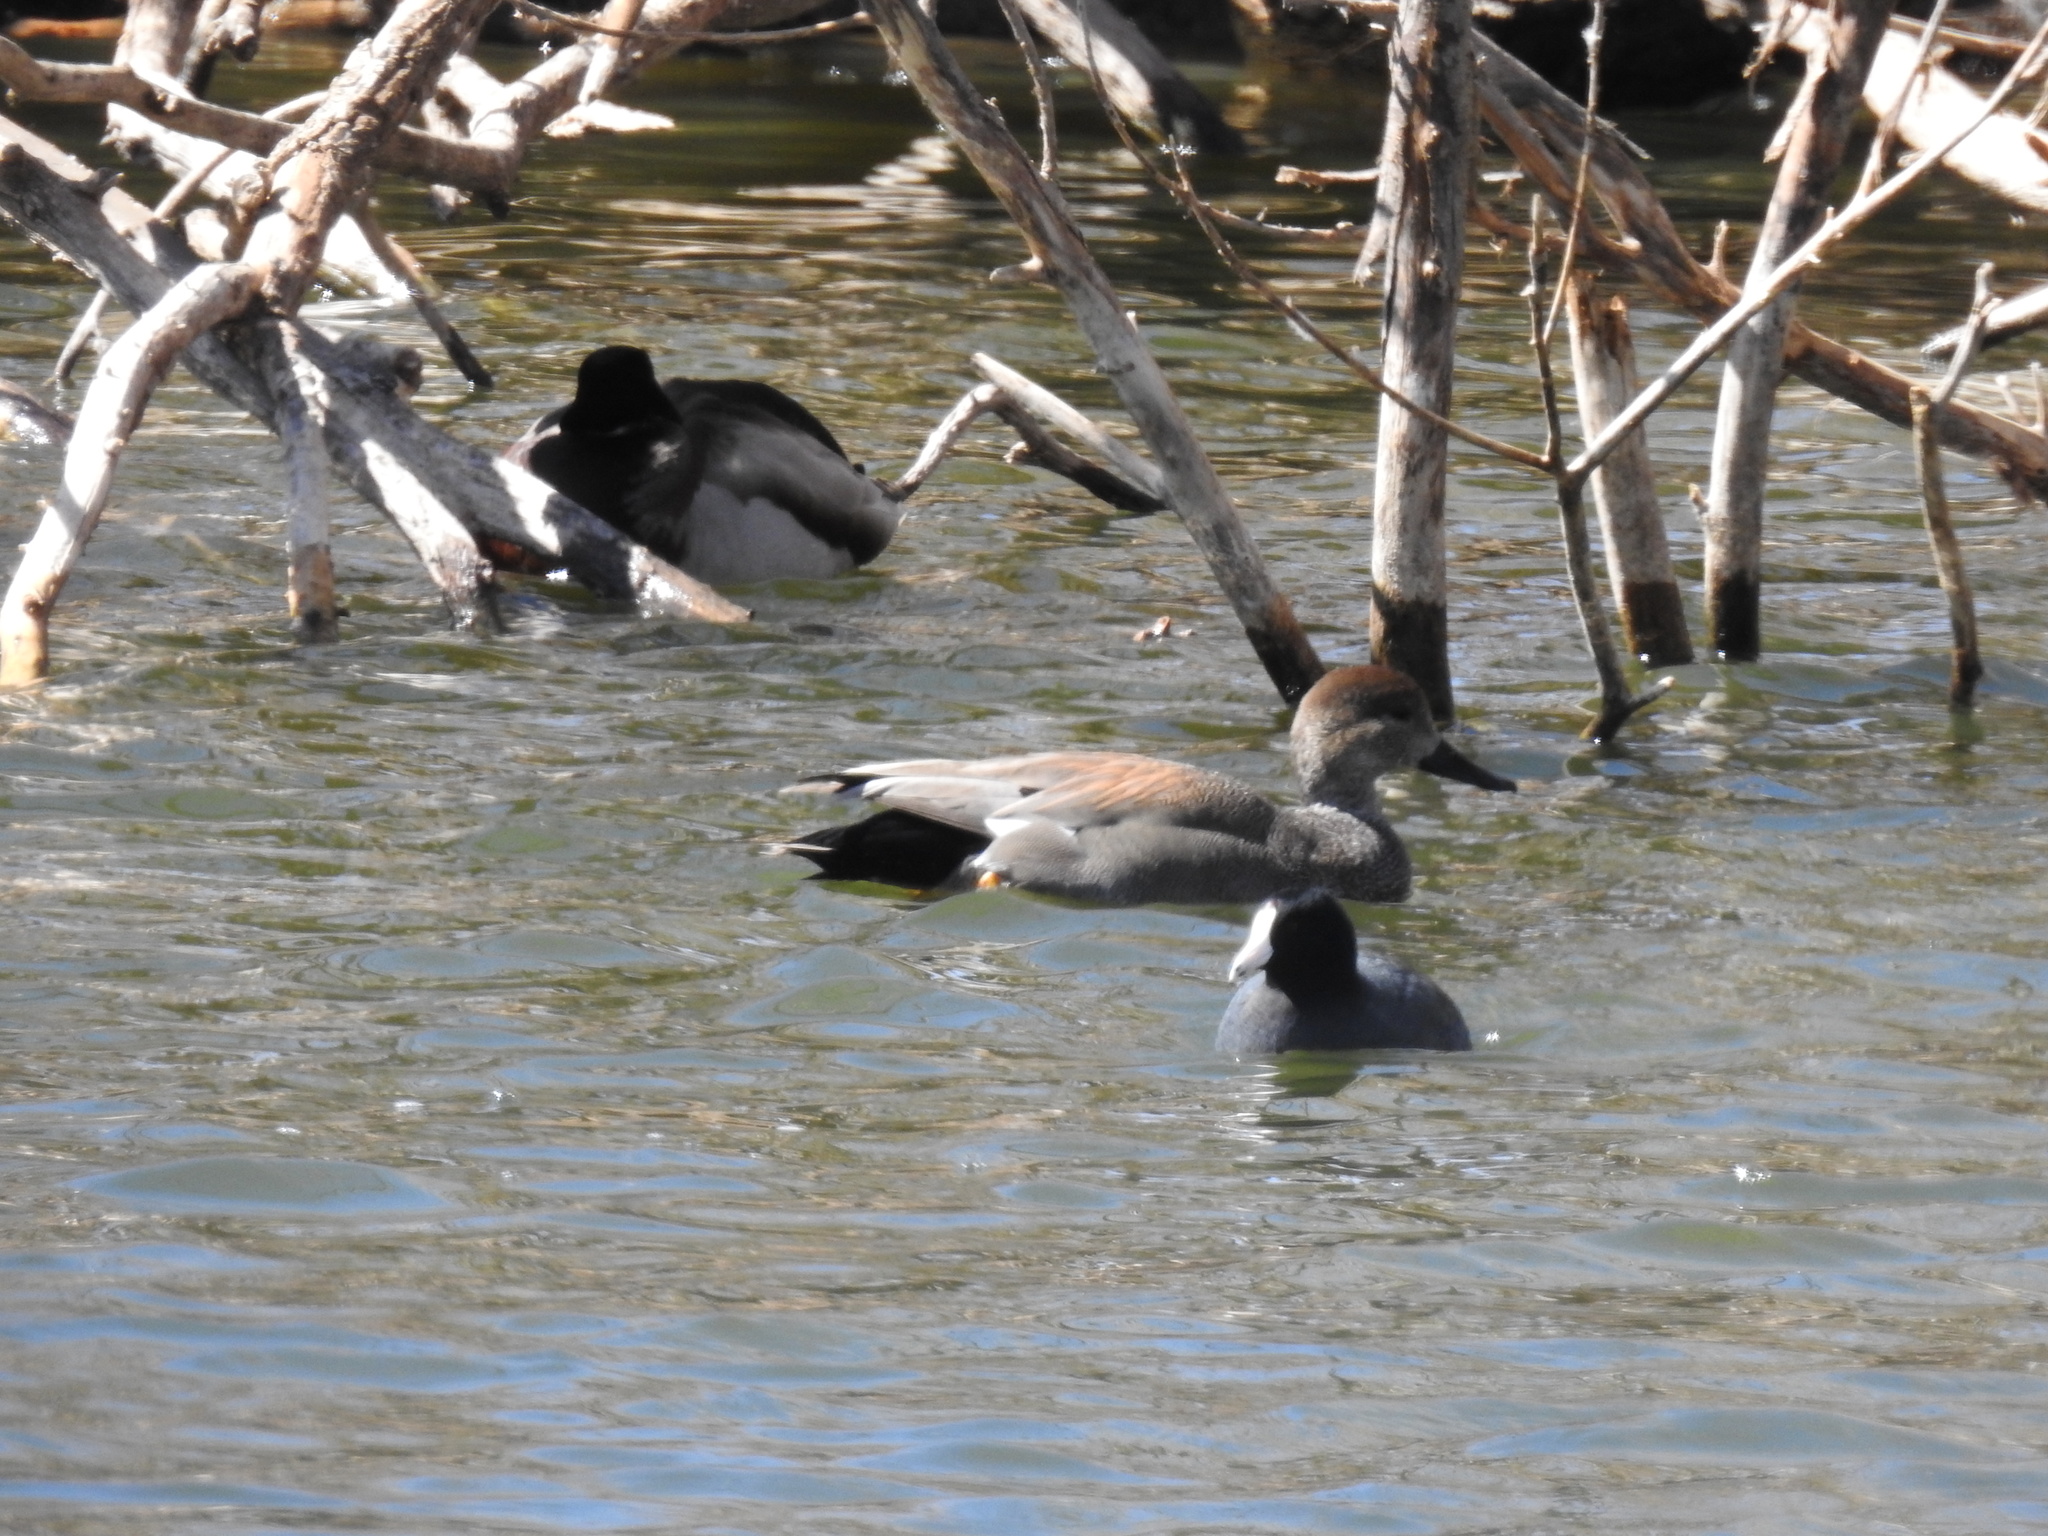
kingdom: Animalia
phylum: Chordata
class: Aves
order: Anseriformes
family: Anatidae
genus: Anas
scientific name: Anas platyrhynchos
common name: Mallard
